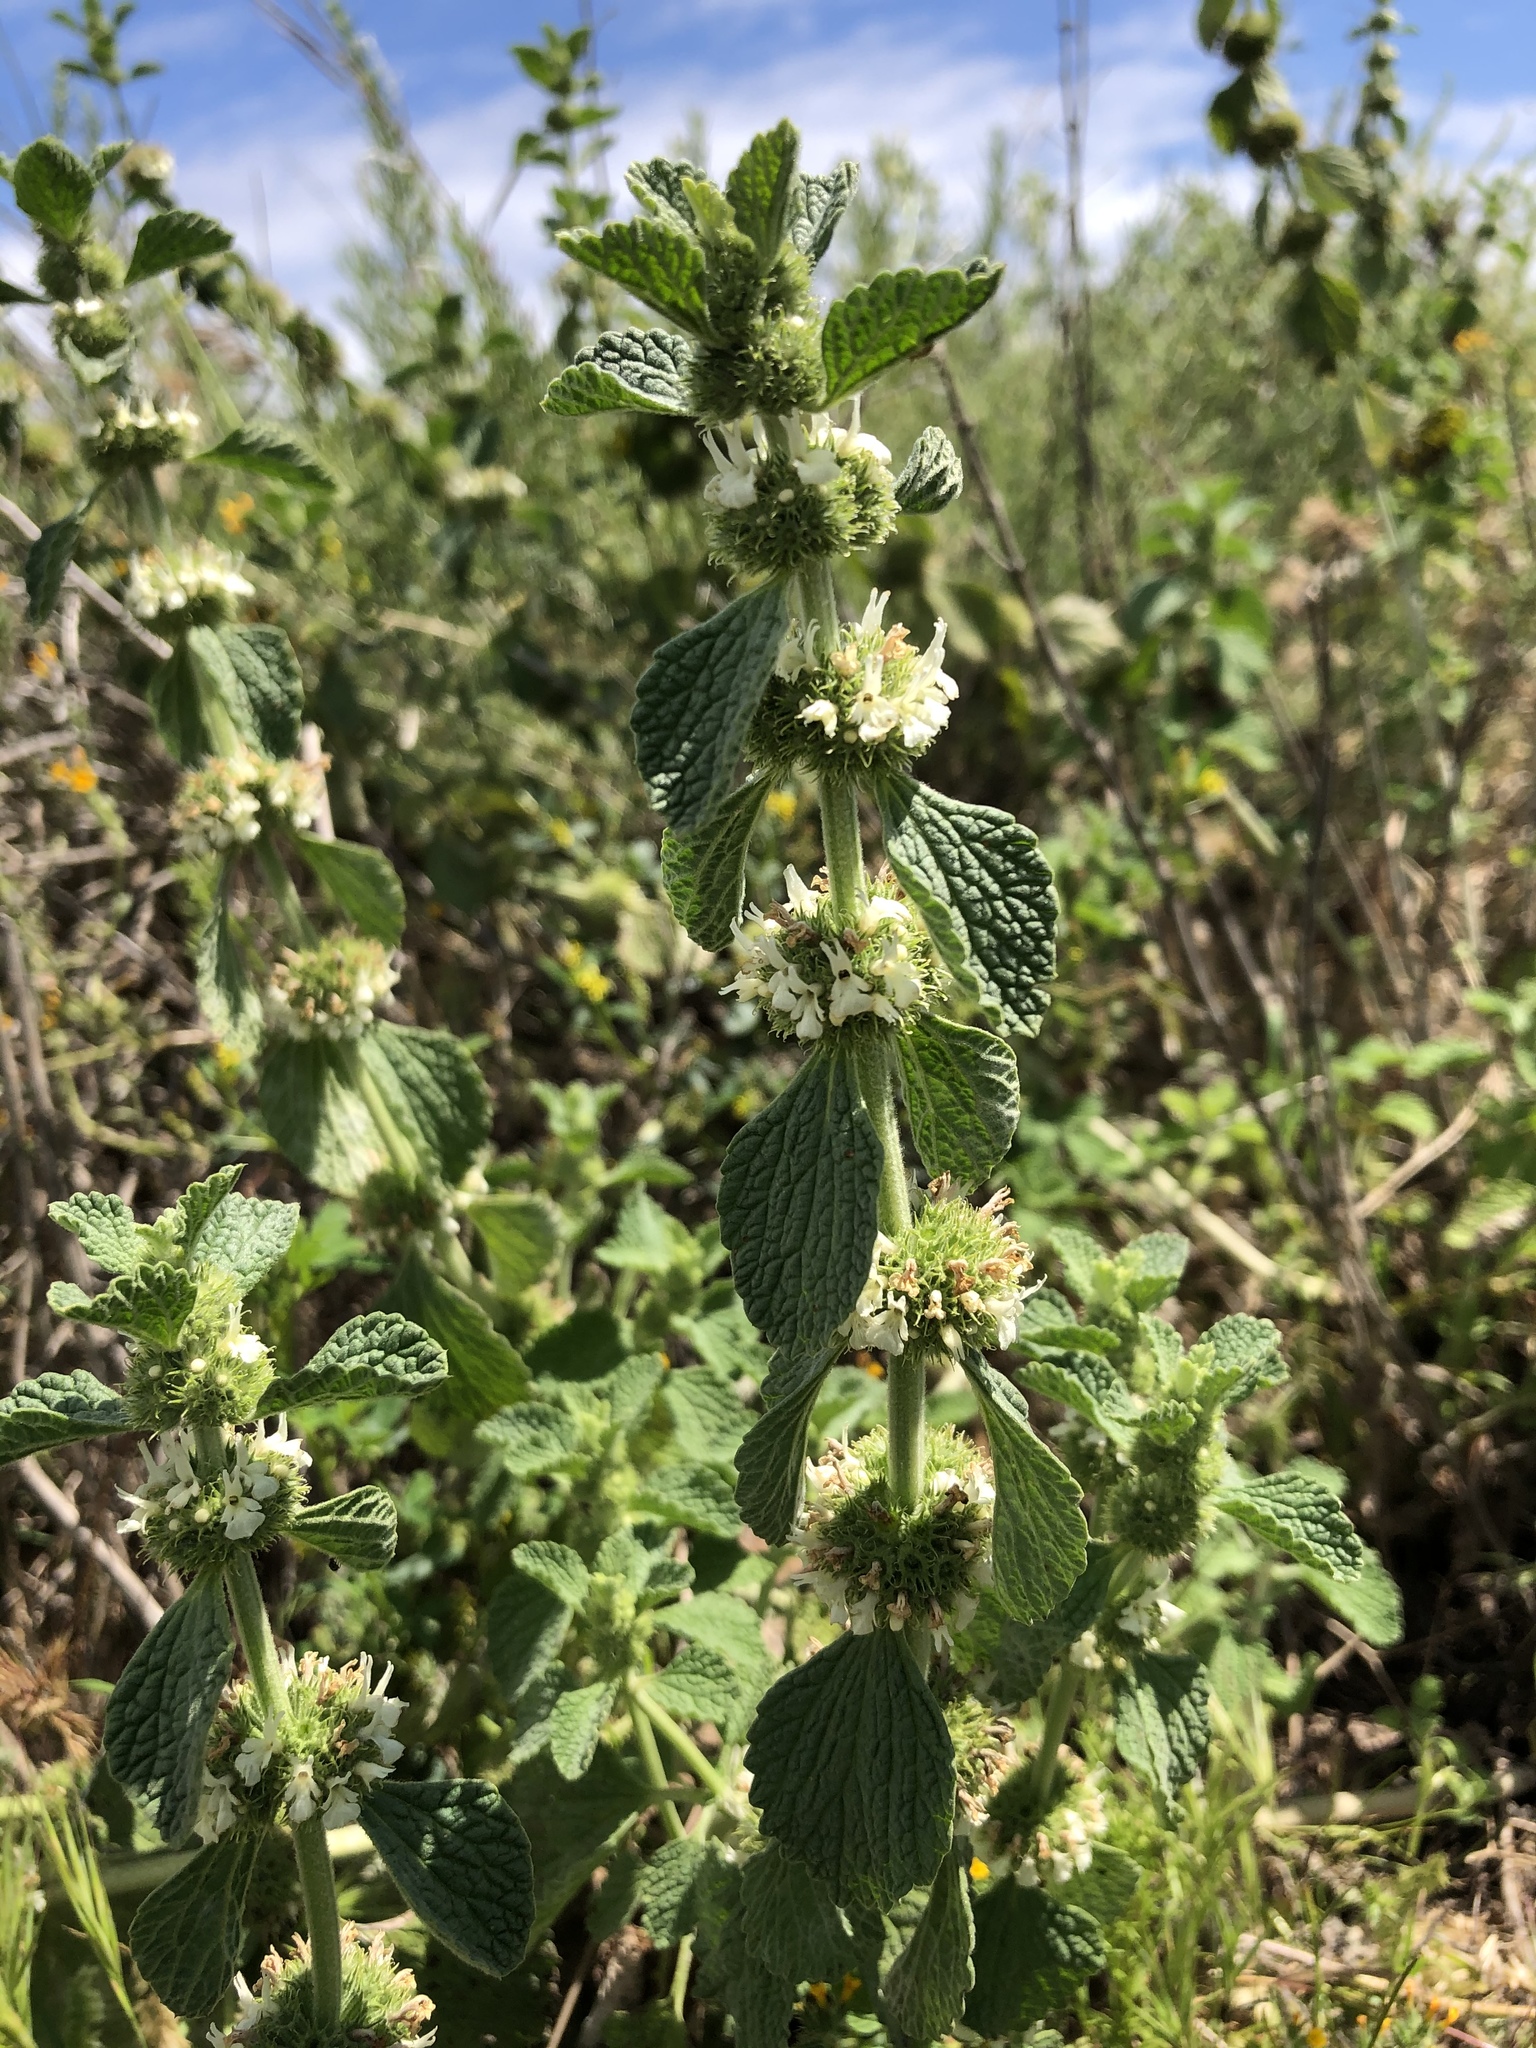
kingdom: Plantae
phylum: Tracheophyta
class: Magnoliopsida
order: Lamiales
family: Lamiaceae
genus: Marrubium
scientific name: Marrubium vulgare
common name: Horehound
